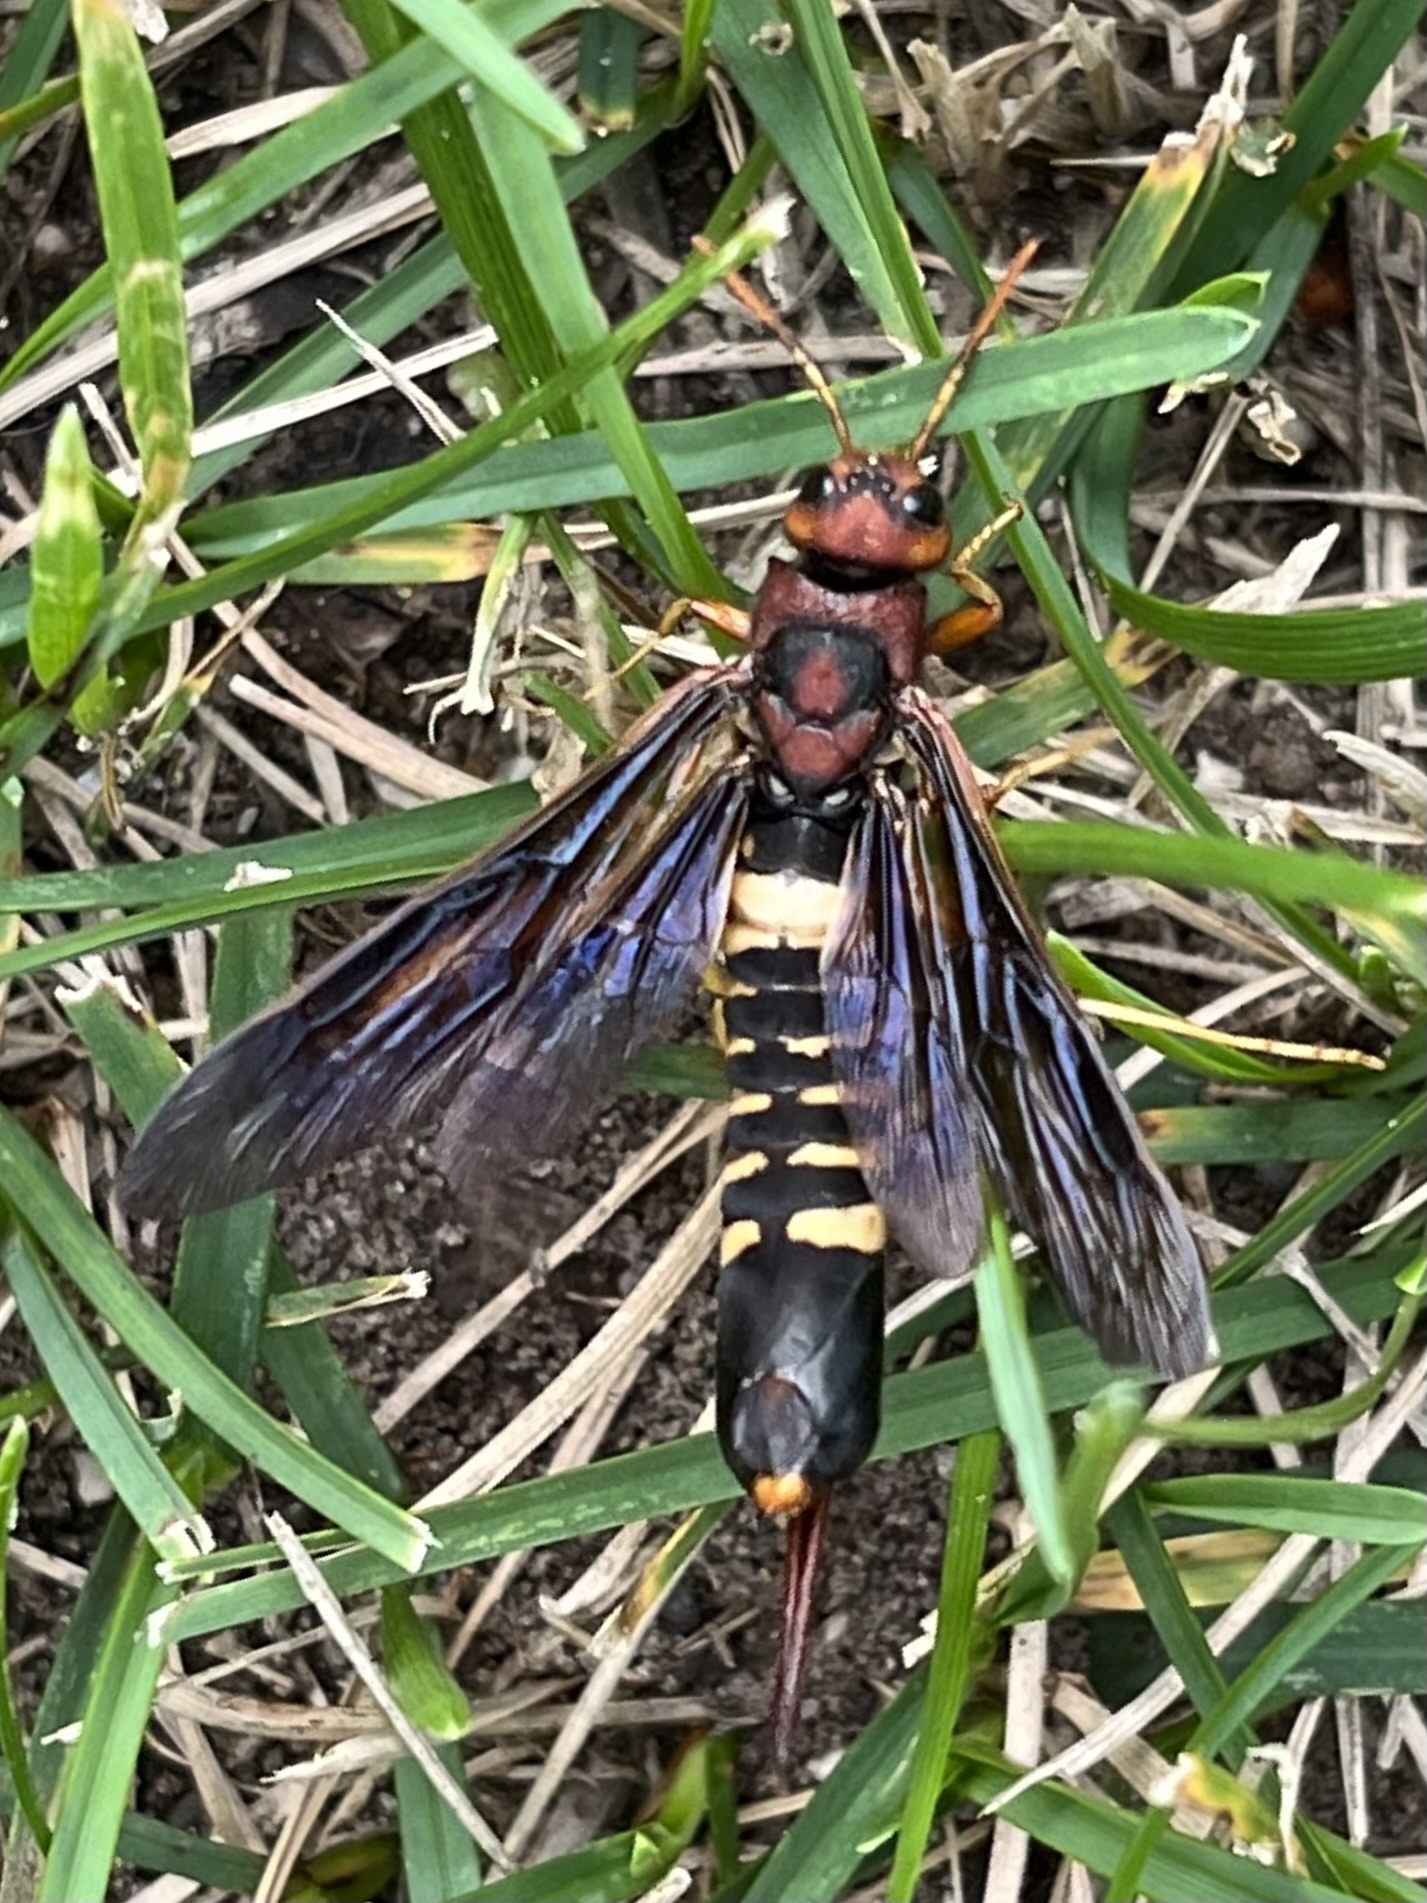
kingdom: Animalia
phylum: Arthropoda
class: Insecta
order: Hymenoptera
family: Siricidae
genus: Tremex
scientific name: Tremex columba
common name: Wasp
